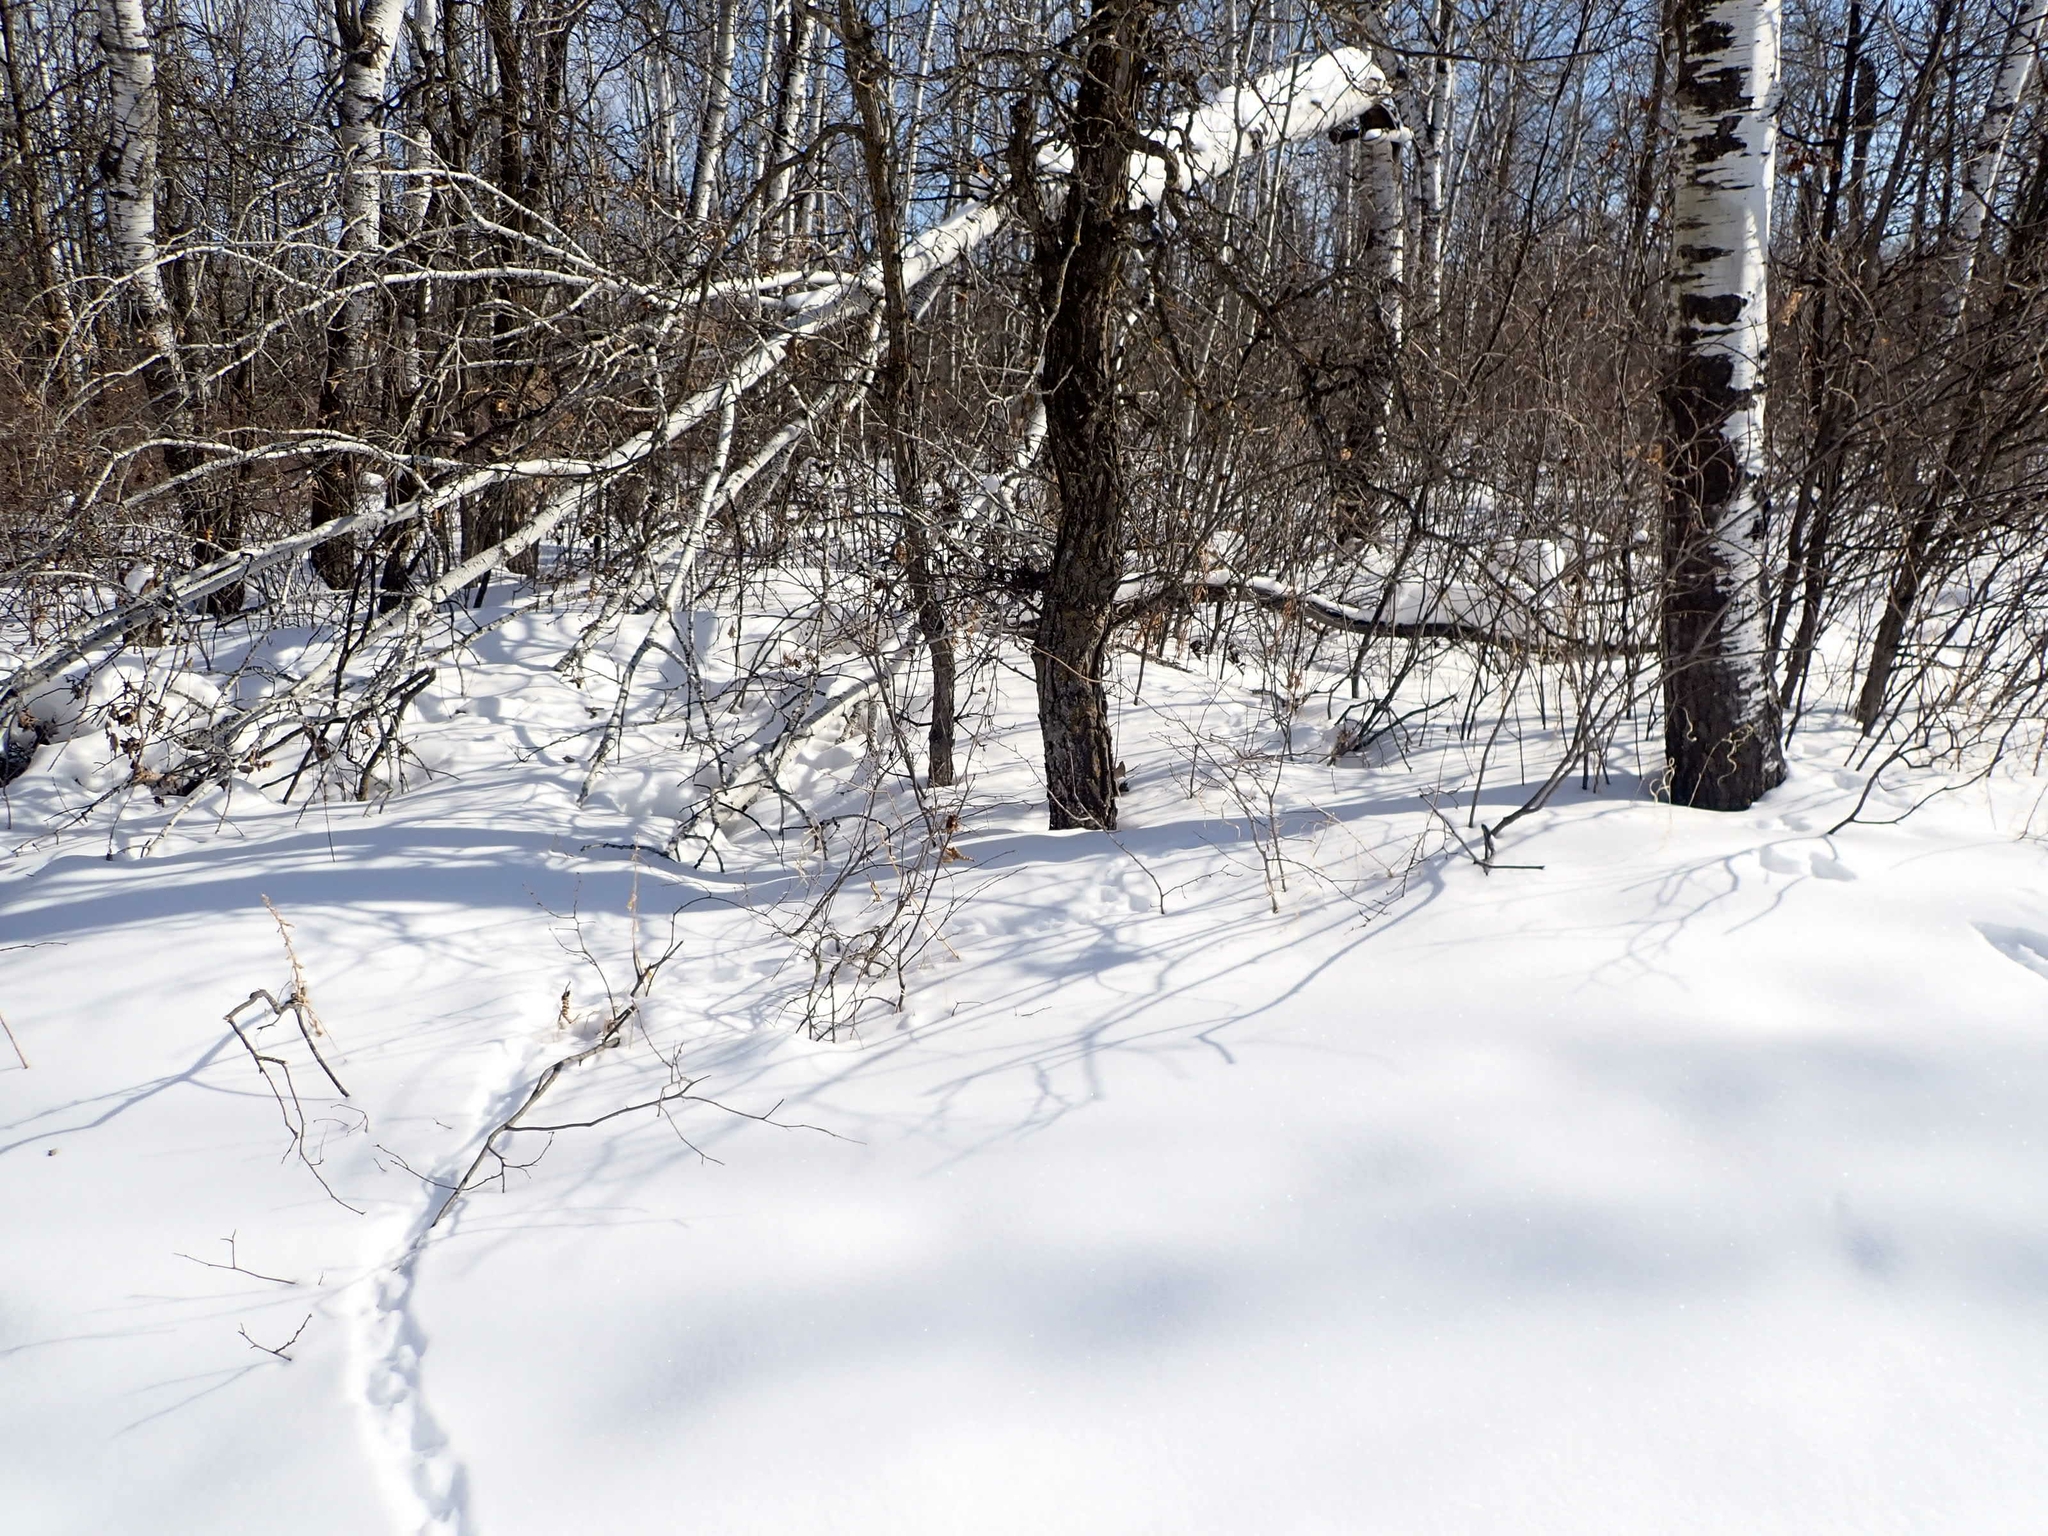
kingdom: Animalia
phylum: Chordata
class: Aves
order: Galliformes
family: Phasianidae
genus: Bonasa
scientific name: Bonasa umbellus
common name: Ruffed grouse
